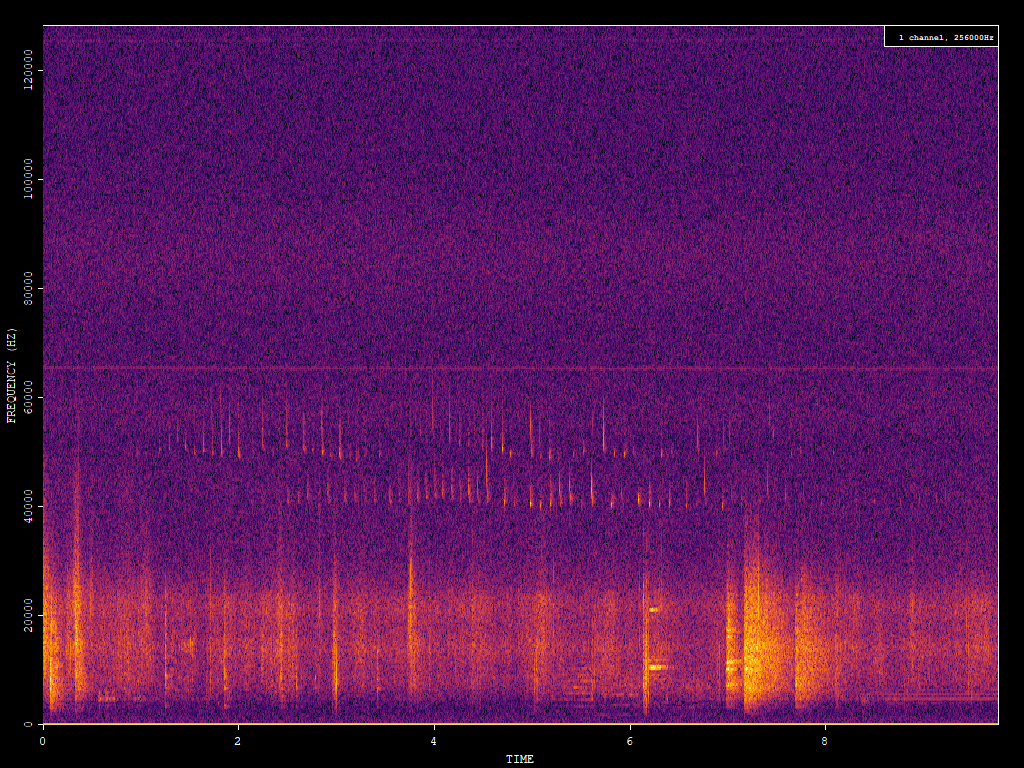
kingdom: Animalia
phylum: Chordata
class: Mammalia
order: Chiroptera
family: Vespertilionidae
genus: Pipistrellus
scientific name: Pipistrellus nathusii
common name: Nathusius's pipistrelle
